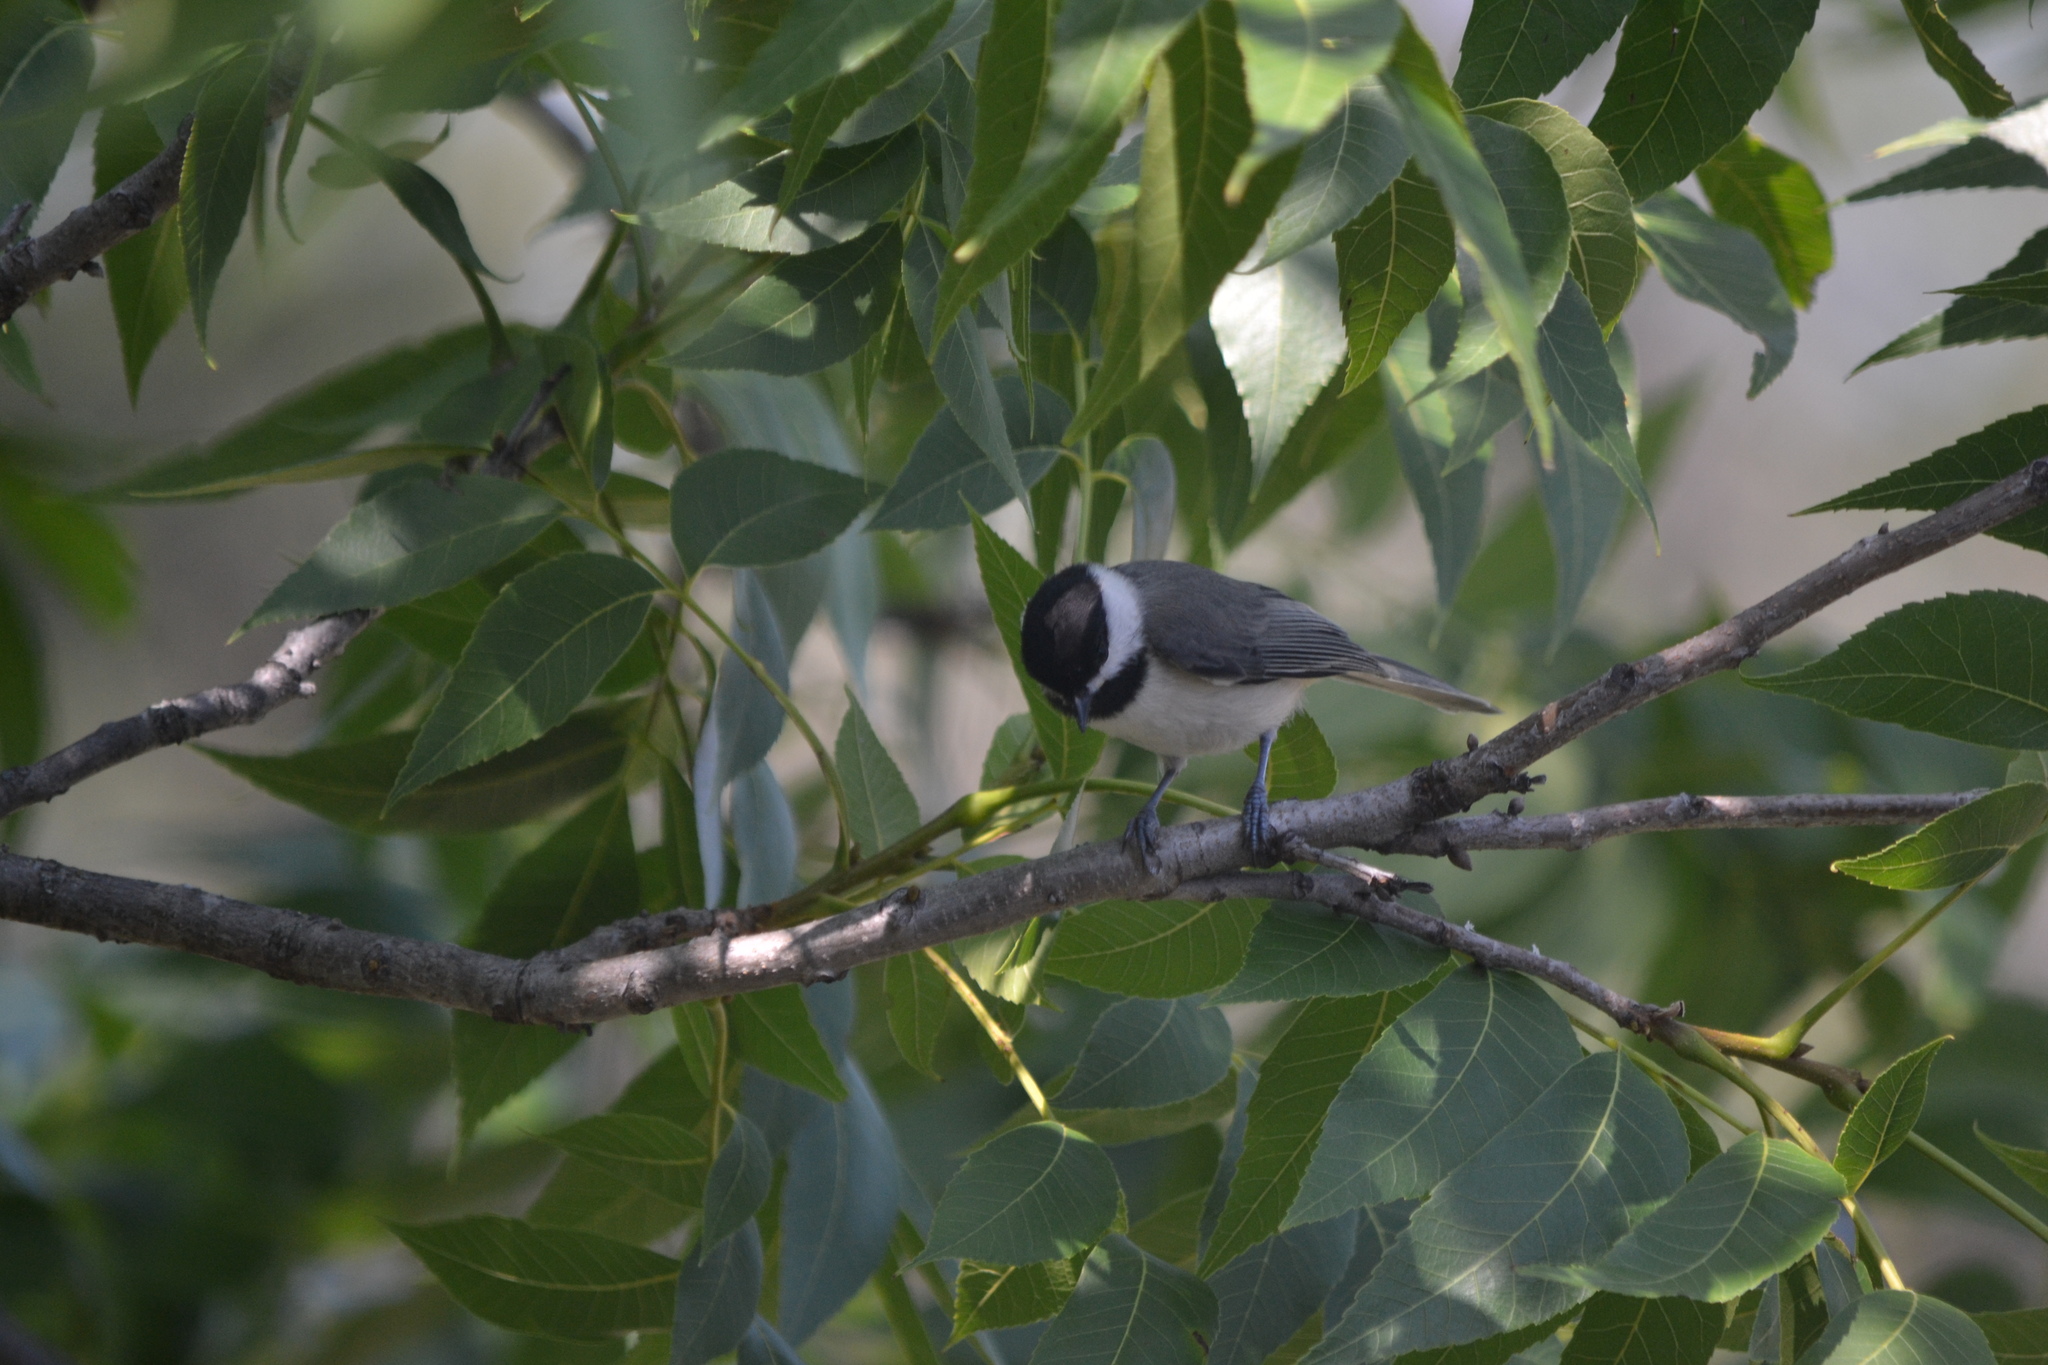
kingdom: Animalia
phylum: Chordata
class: Aves
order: Passeriformes
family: Paridae
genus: Poecile
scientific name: Poecile carolinensis
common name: Carolina chickadee
